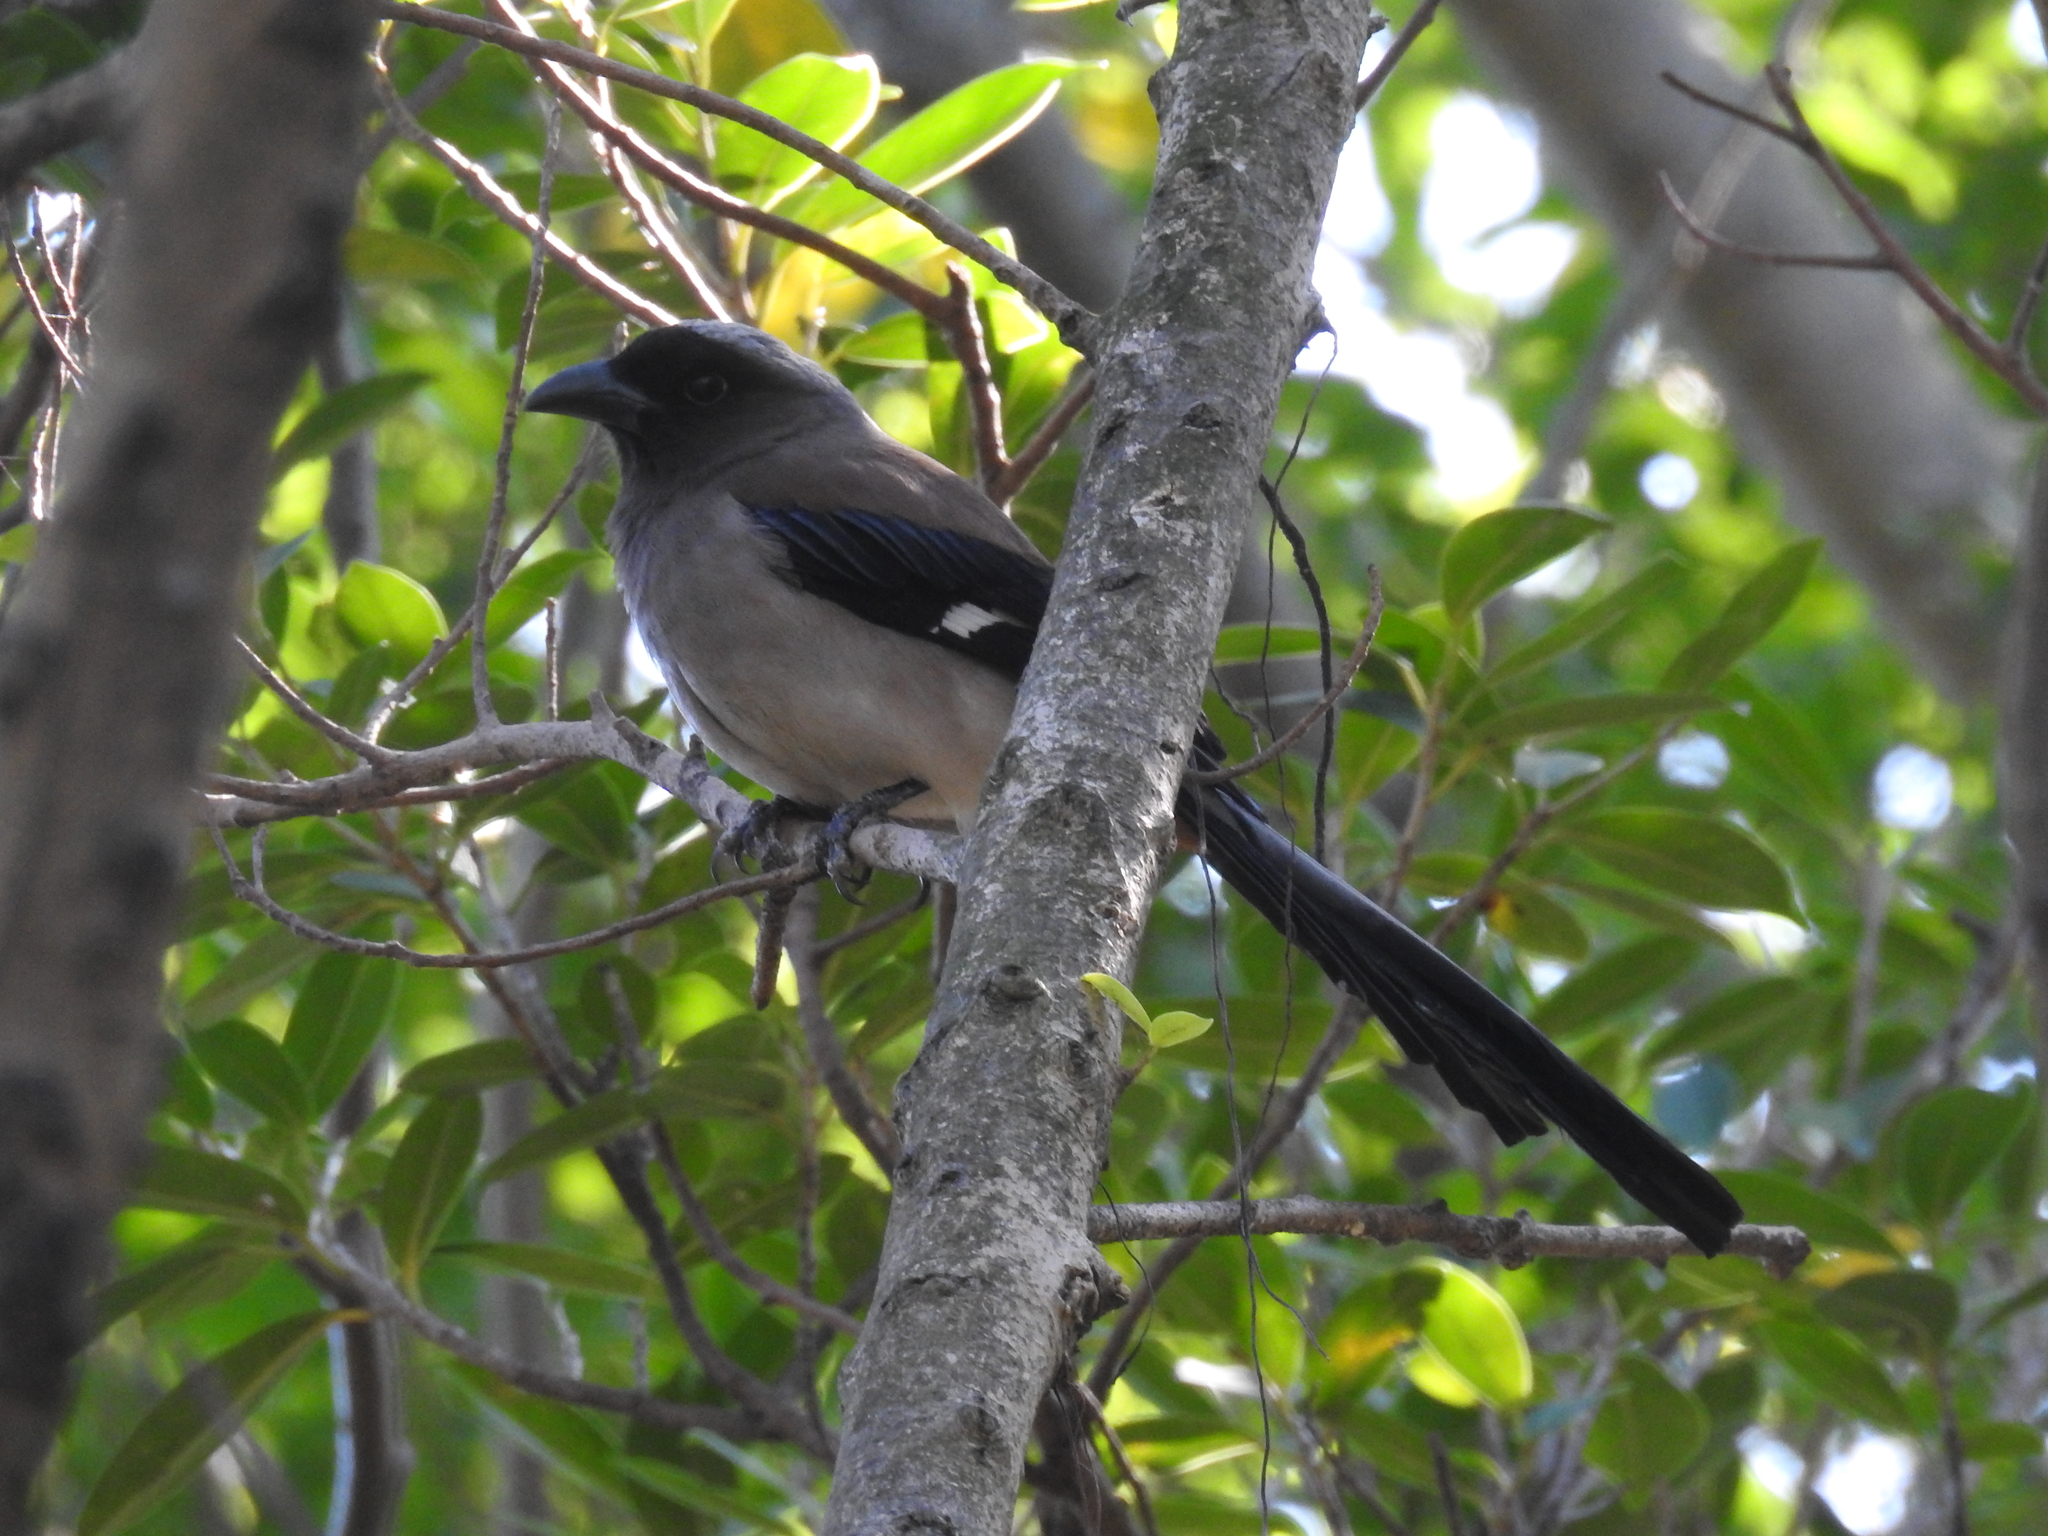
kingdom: Animalia
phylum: Chordata
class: Aves
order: Passeriformes
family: Corvidae
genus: Dendrocitta
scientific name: Dendrocitta formosae
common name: Grey treepie
